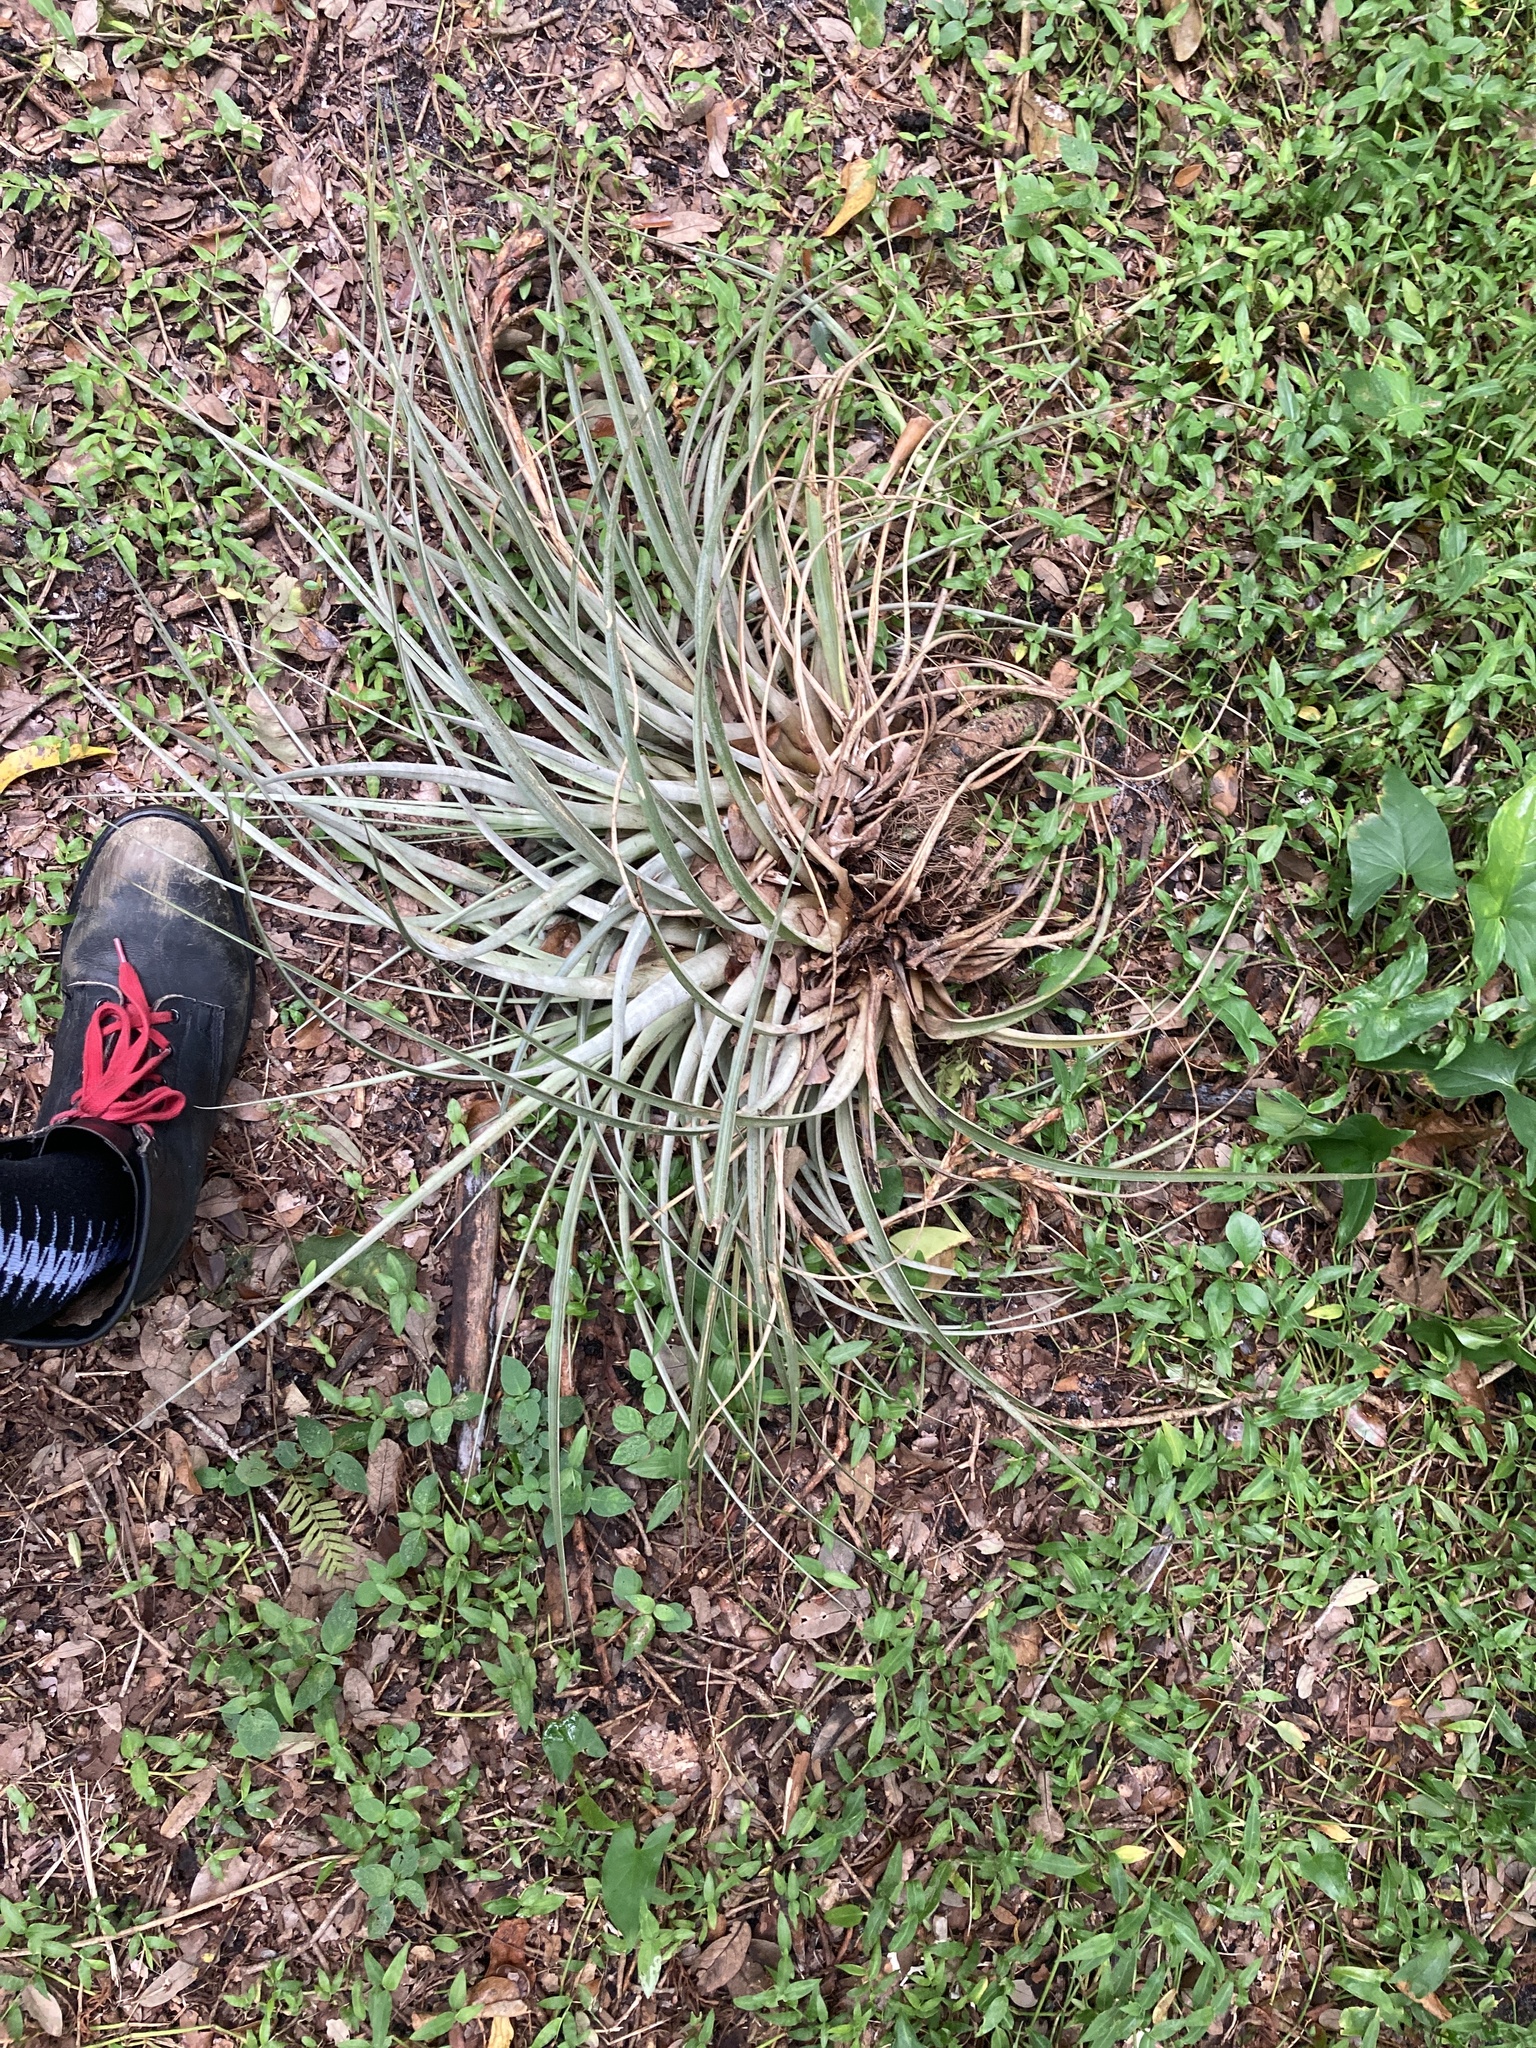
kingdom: Plantae
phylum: Tracheophyta
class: Liliopsida
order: Poales
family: Bromeliaceae
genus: Tillandsia
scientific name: Tillandsia fasciculata
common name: Giant airplant
